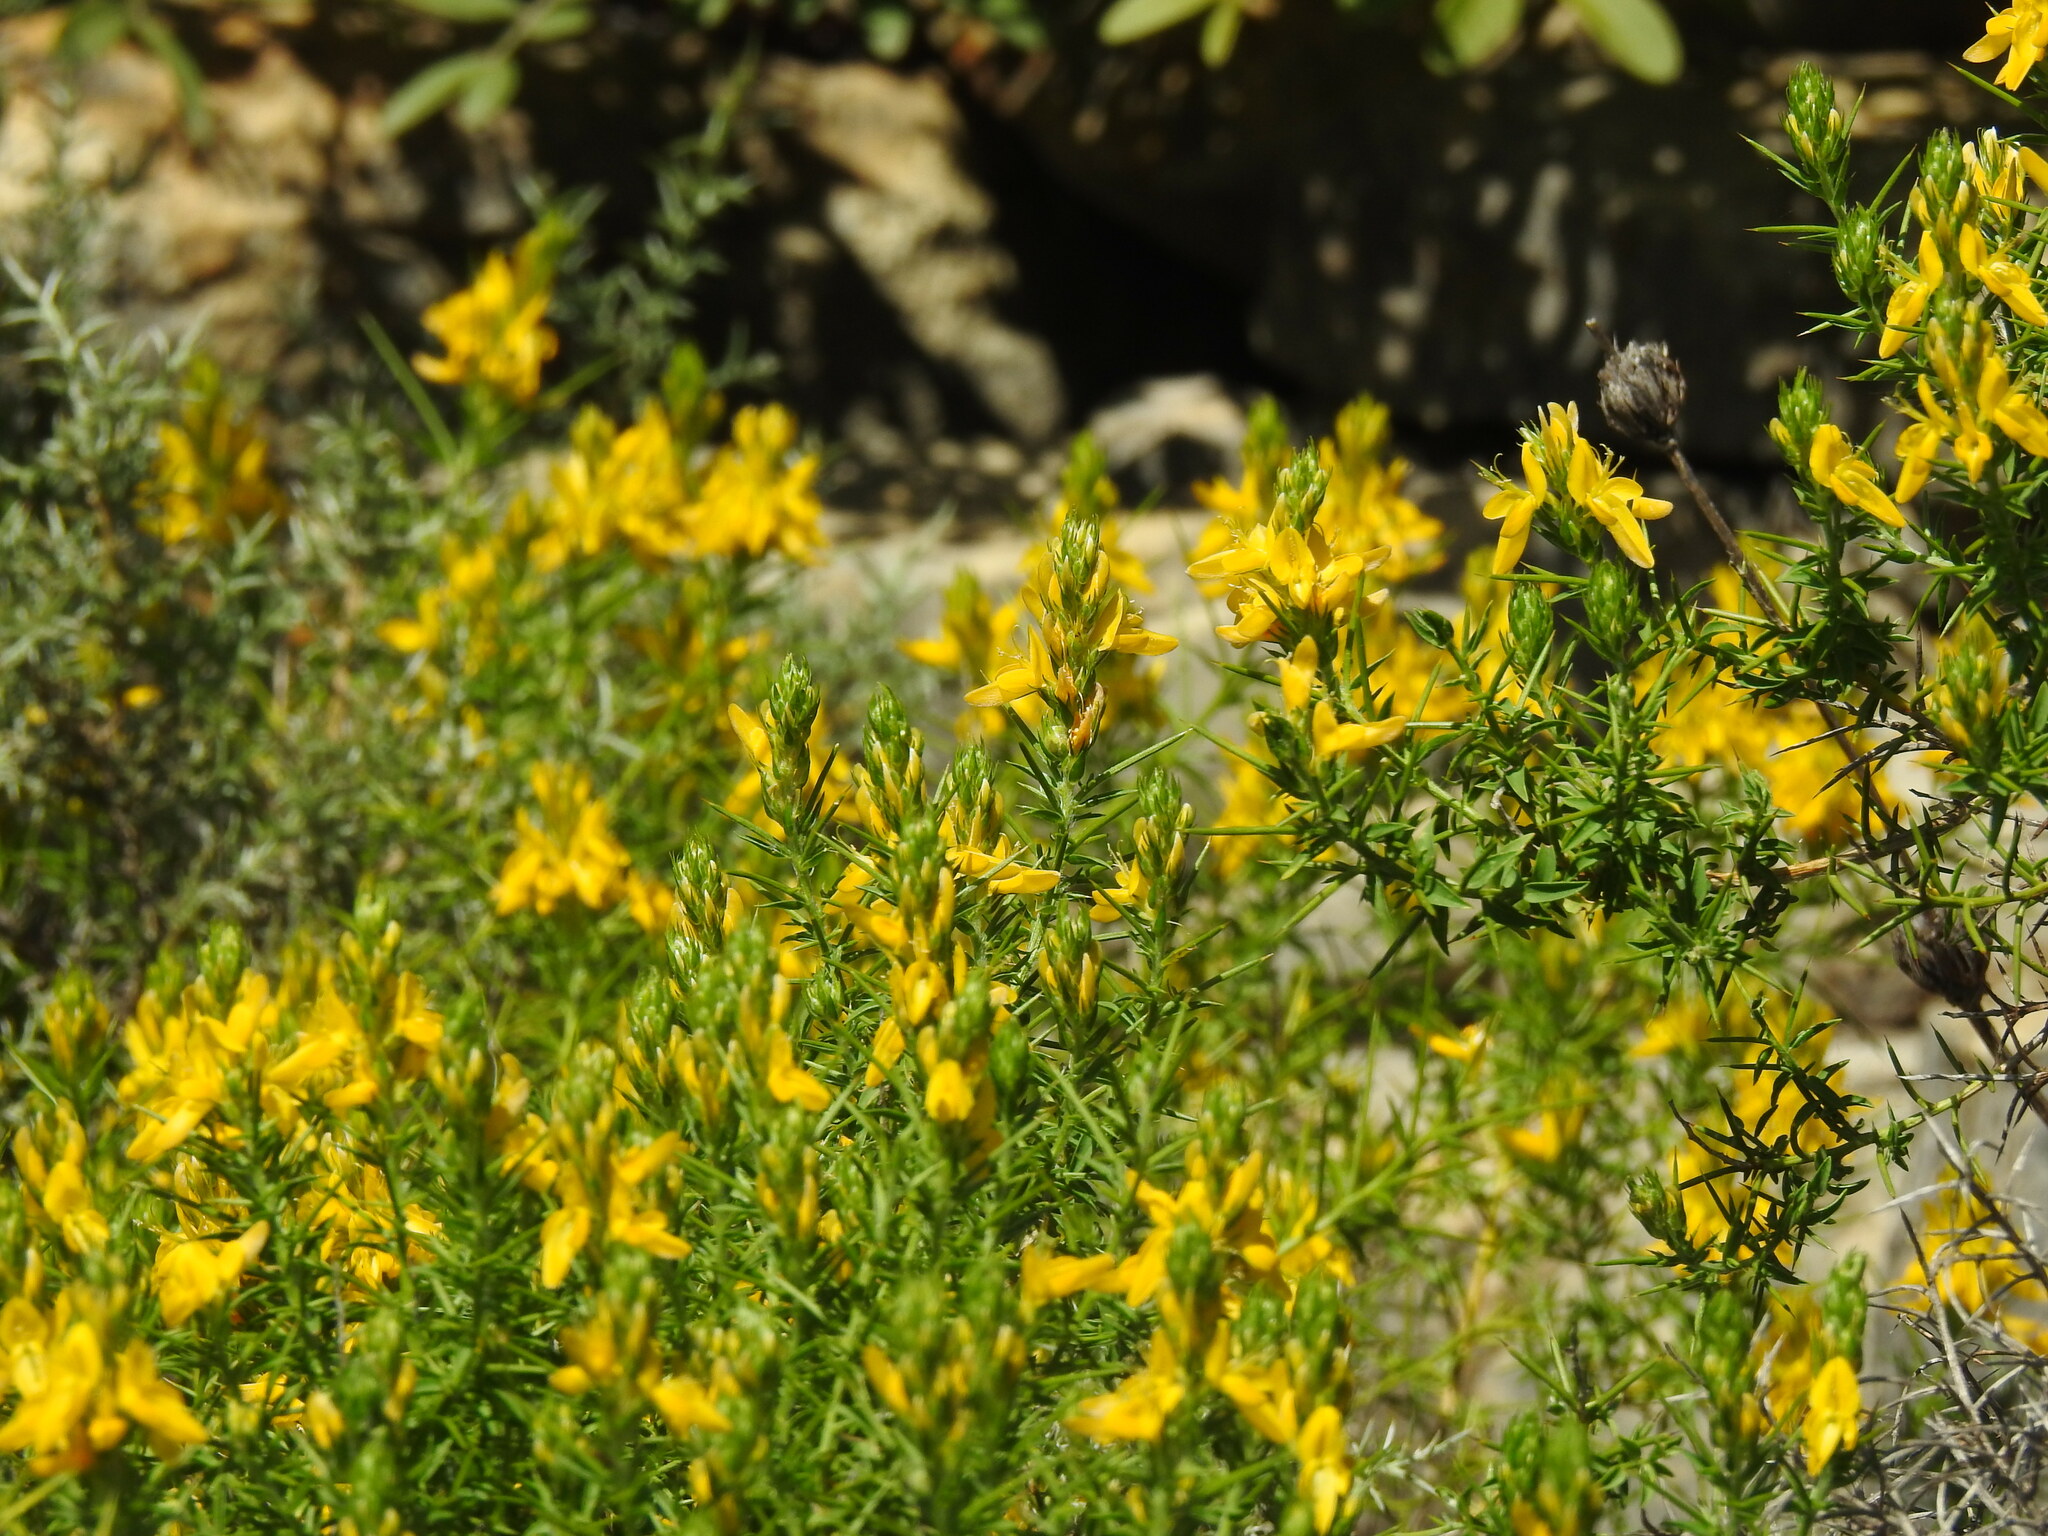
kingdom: Plantae
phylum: Tracheophyta
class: Magnoliopsida
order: Fabales
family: Fabaceae
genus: Genista
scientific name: Genista hirsuta
